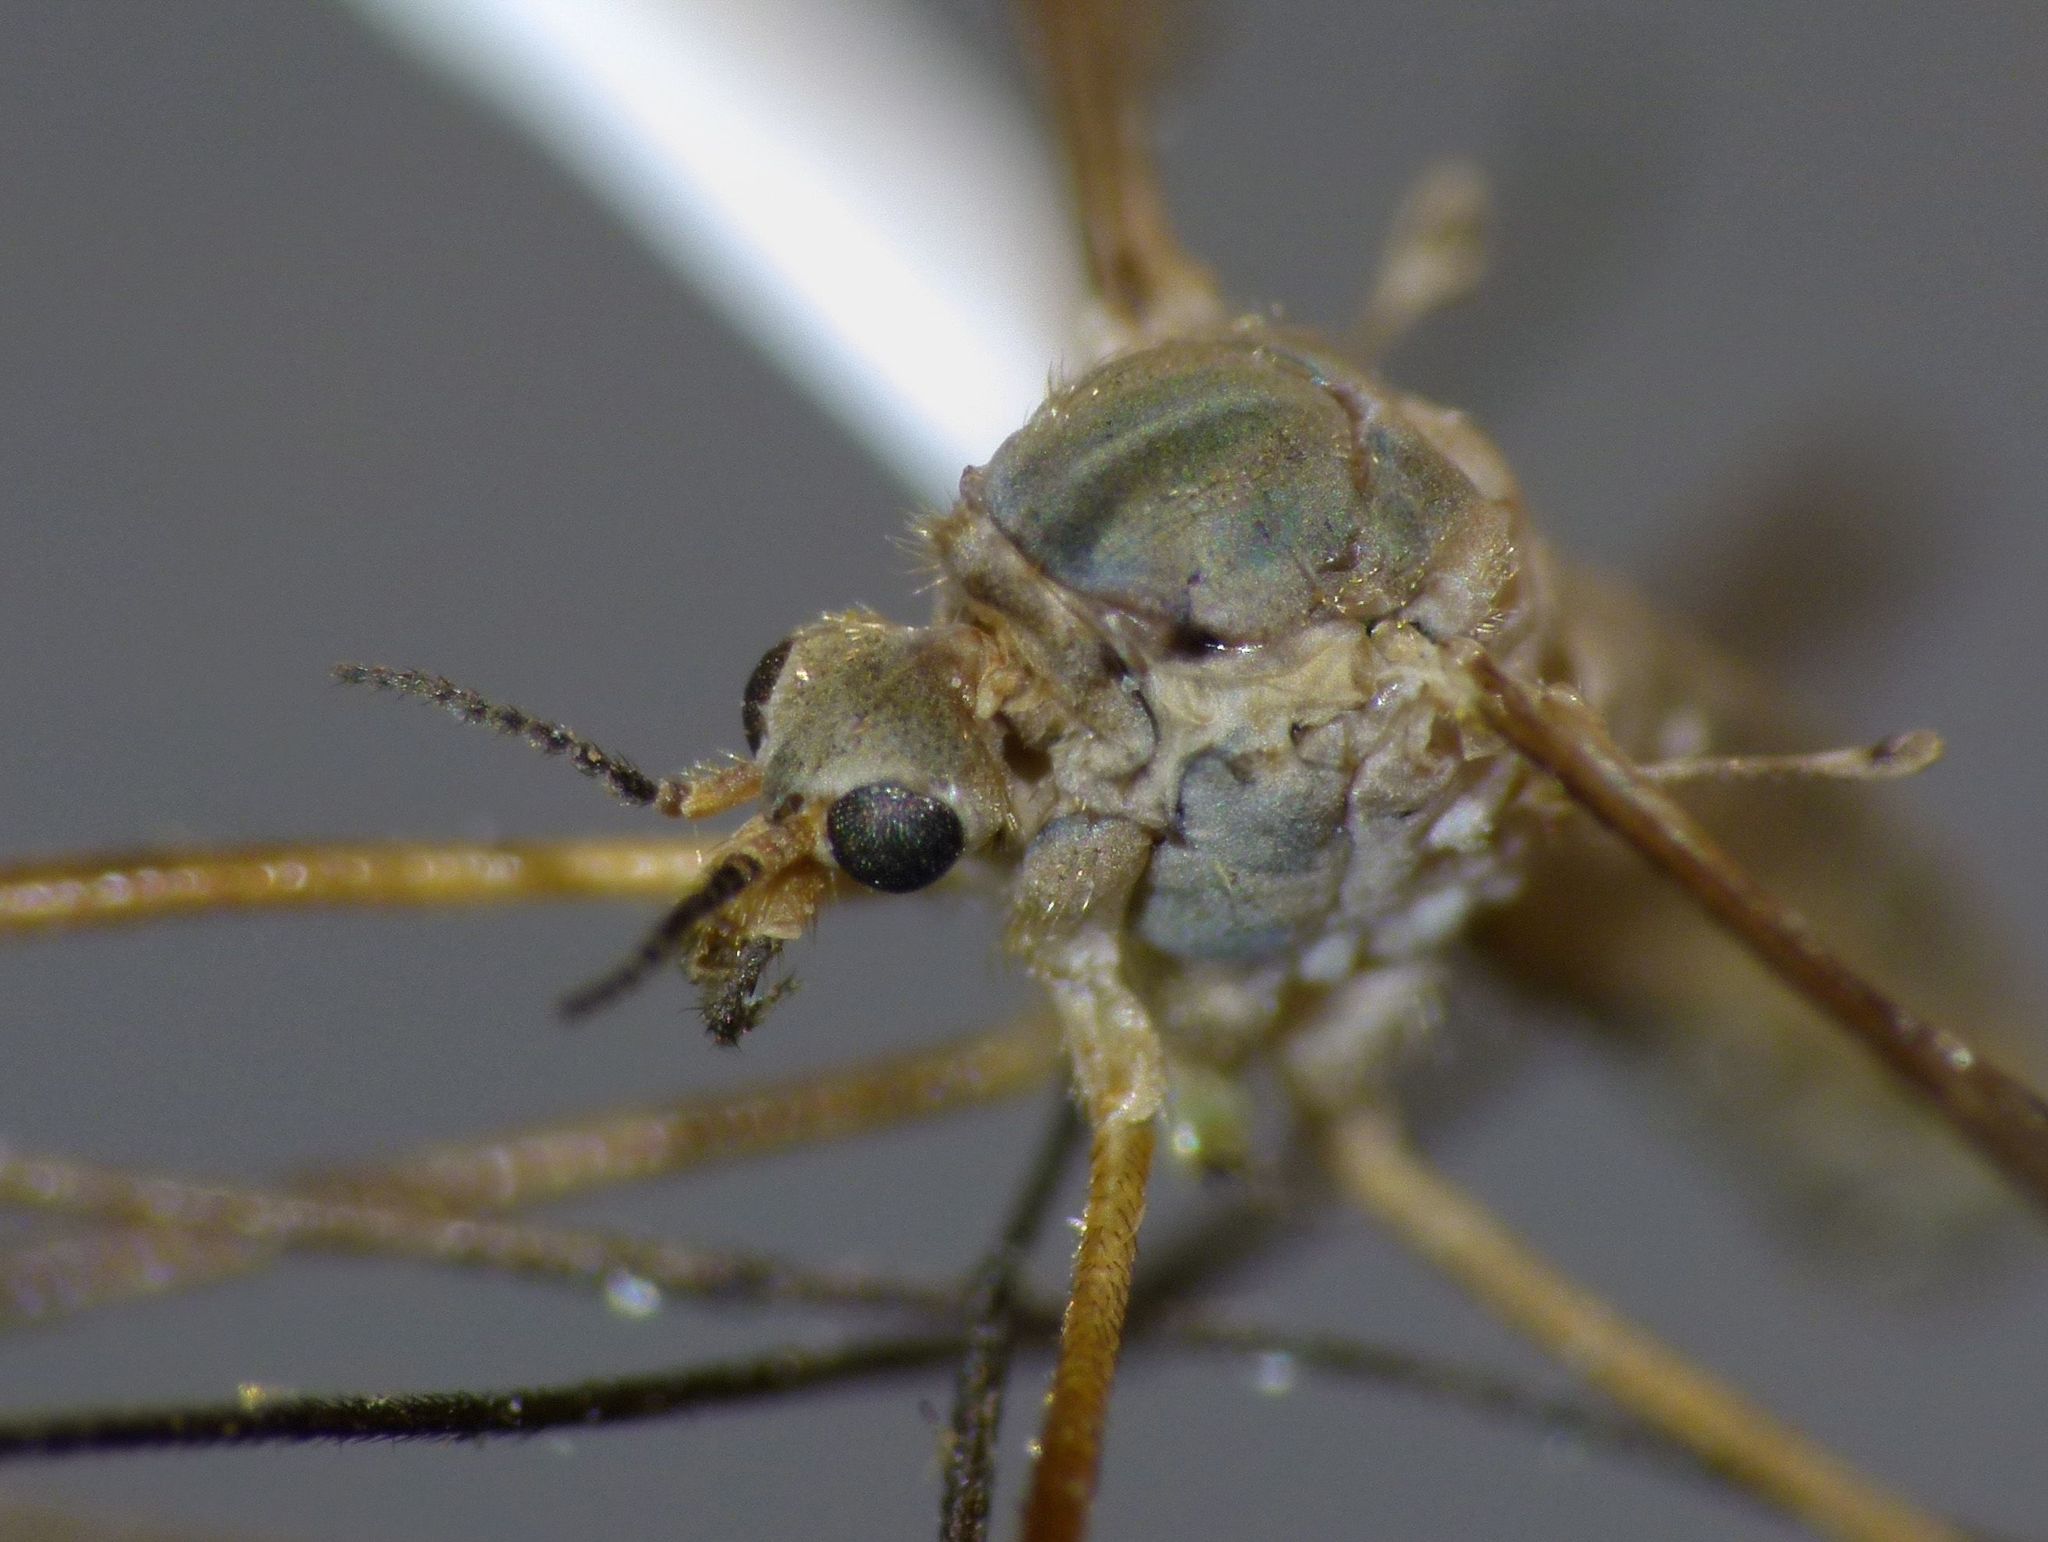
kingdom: Animalia
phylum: Arthropoda
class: Insecta
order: Diptera
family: Tipulidae
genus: Leptotarsus
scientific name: Leptotarsus minutissimus
